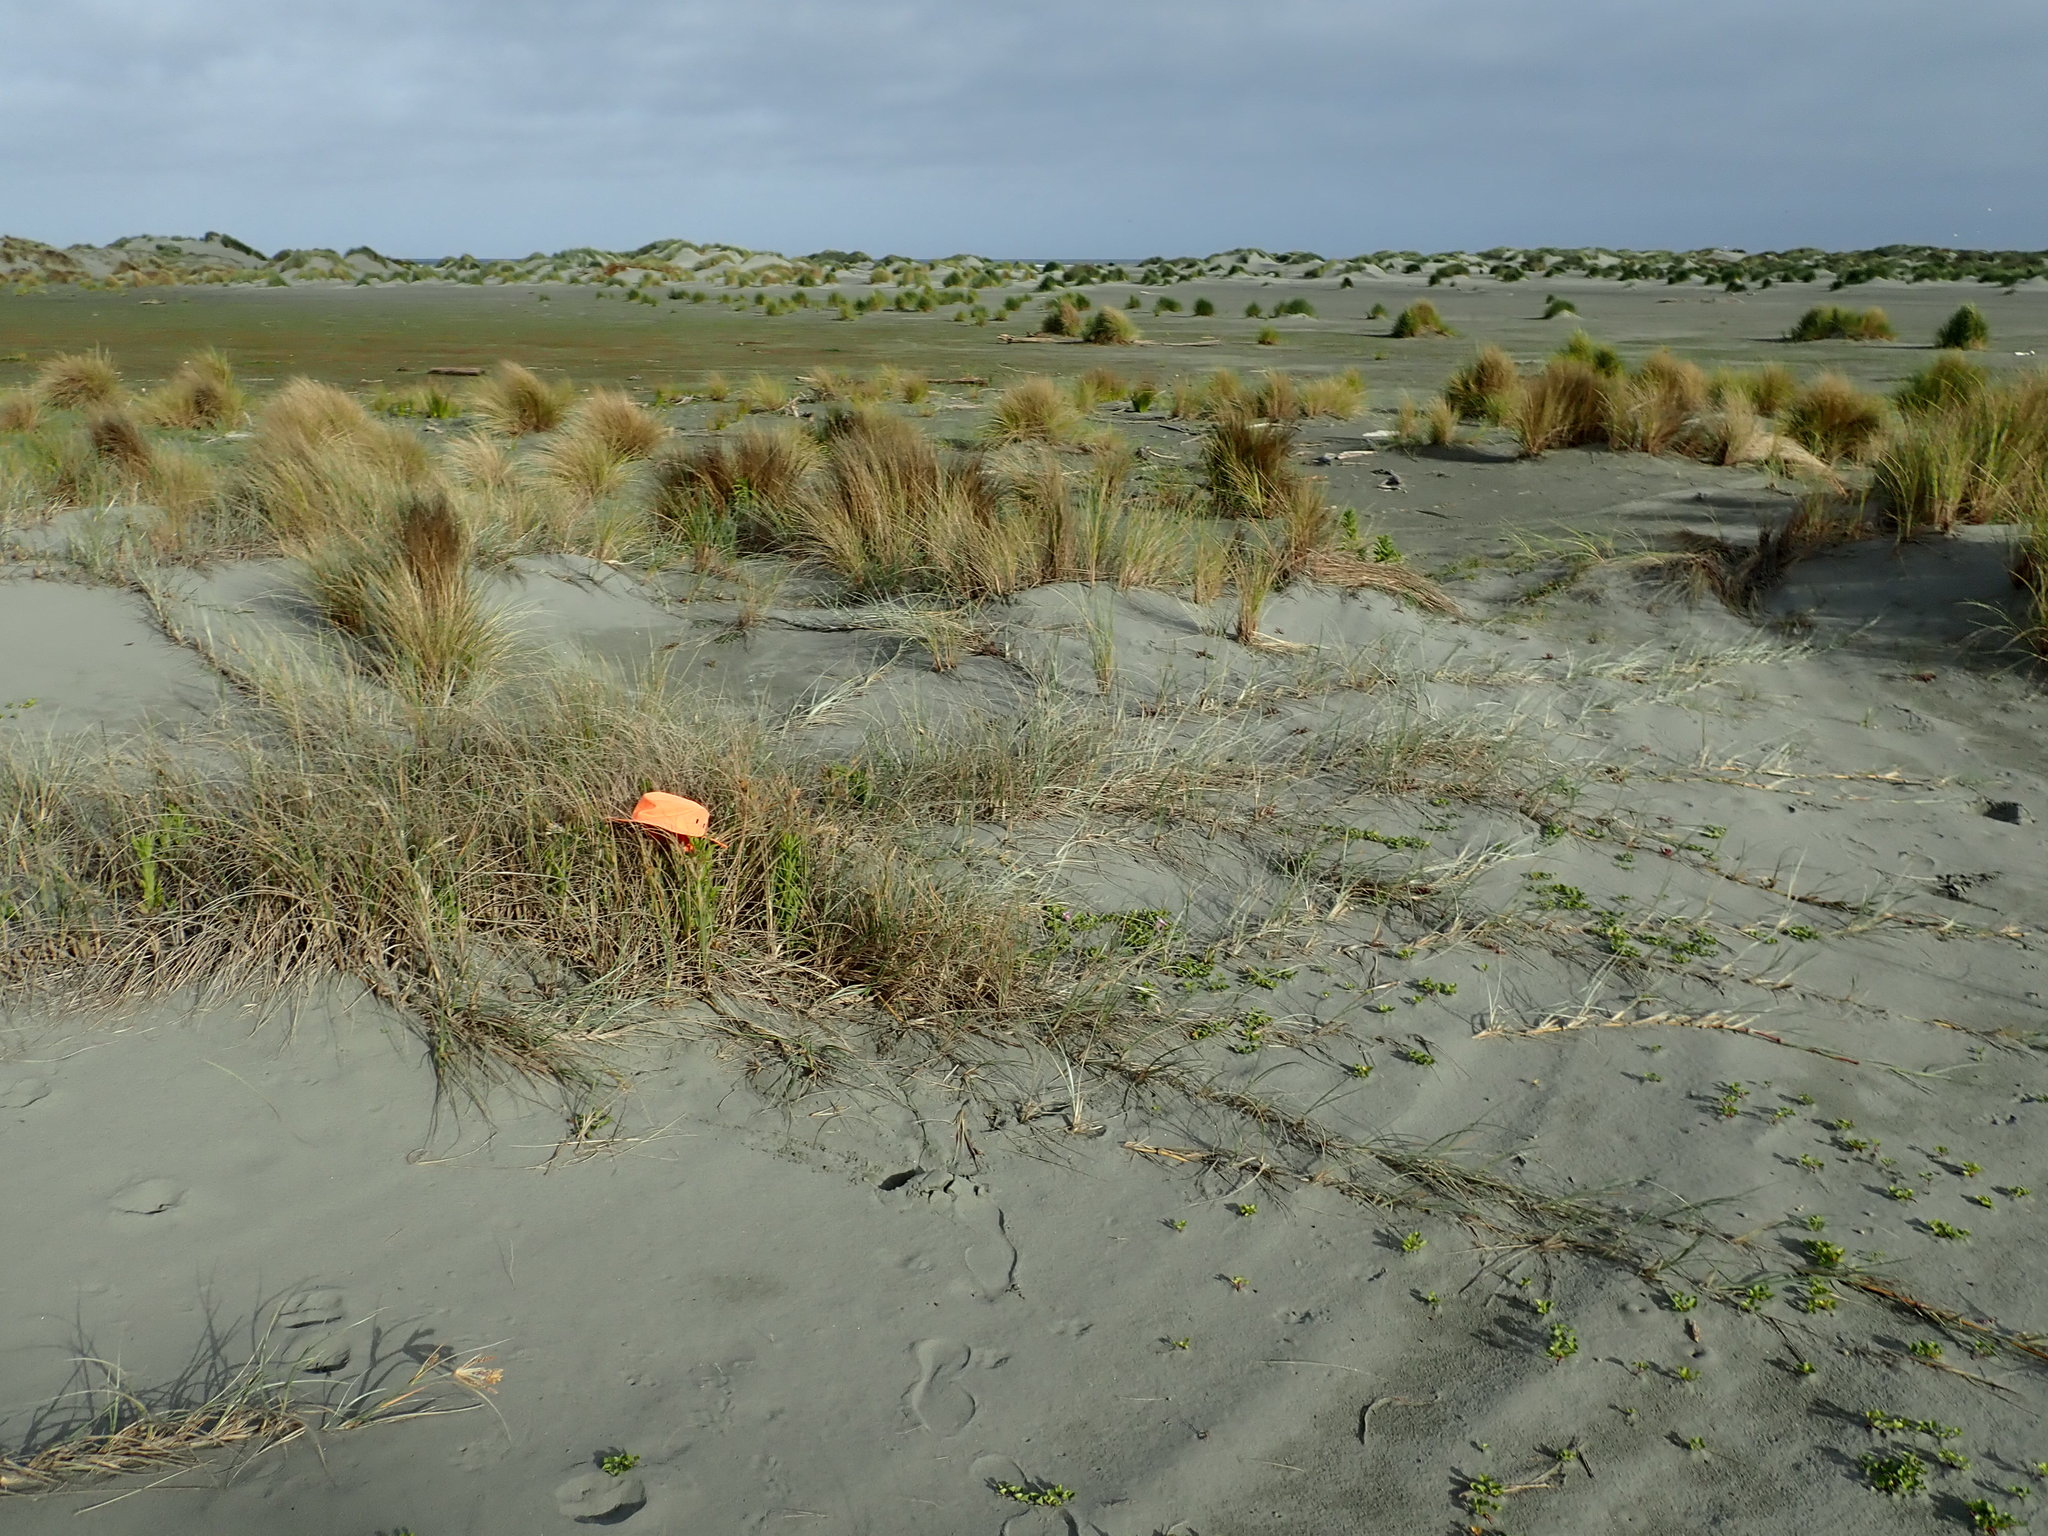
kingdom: Animalia
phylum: Arthropoda
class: Arachnida
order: Araneae
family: Theridiidae
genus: Latrodectus
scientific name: Latrodectus katipo
